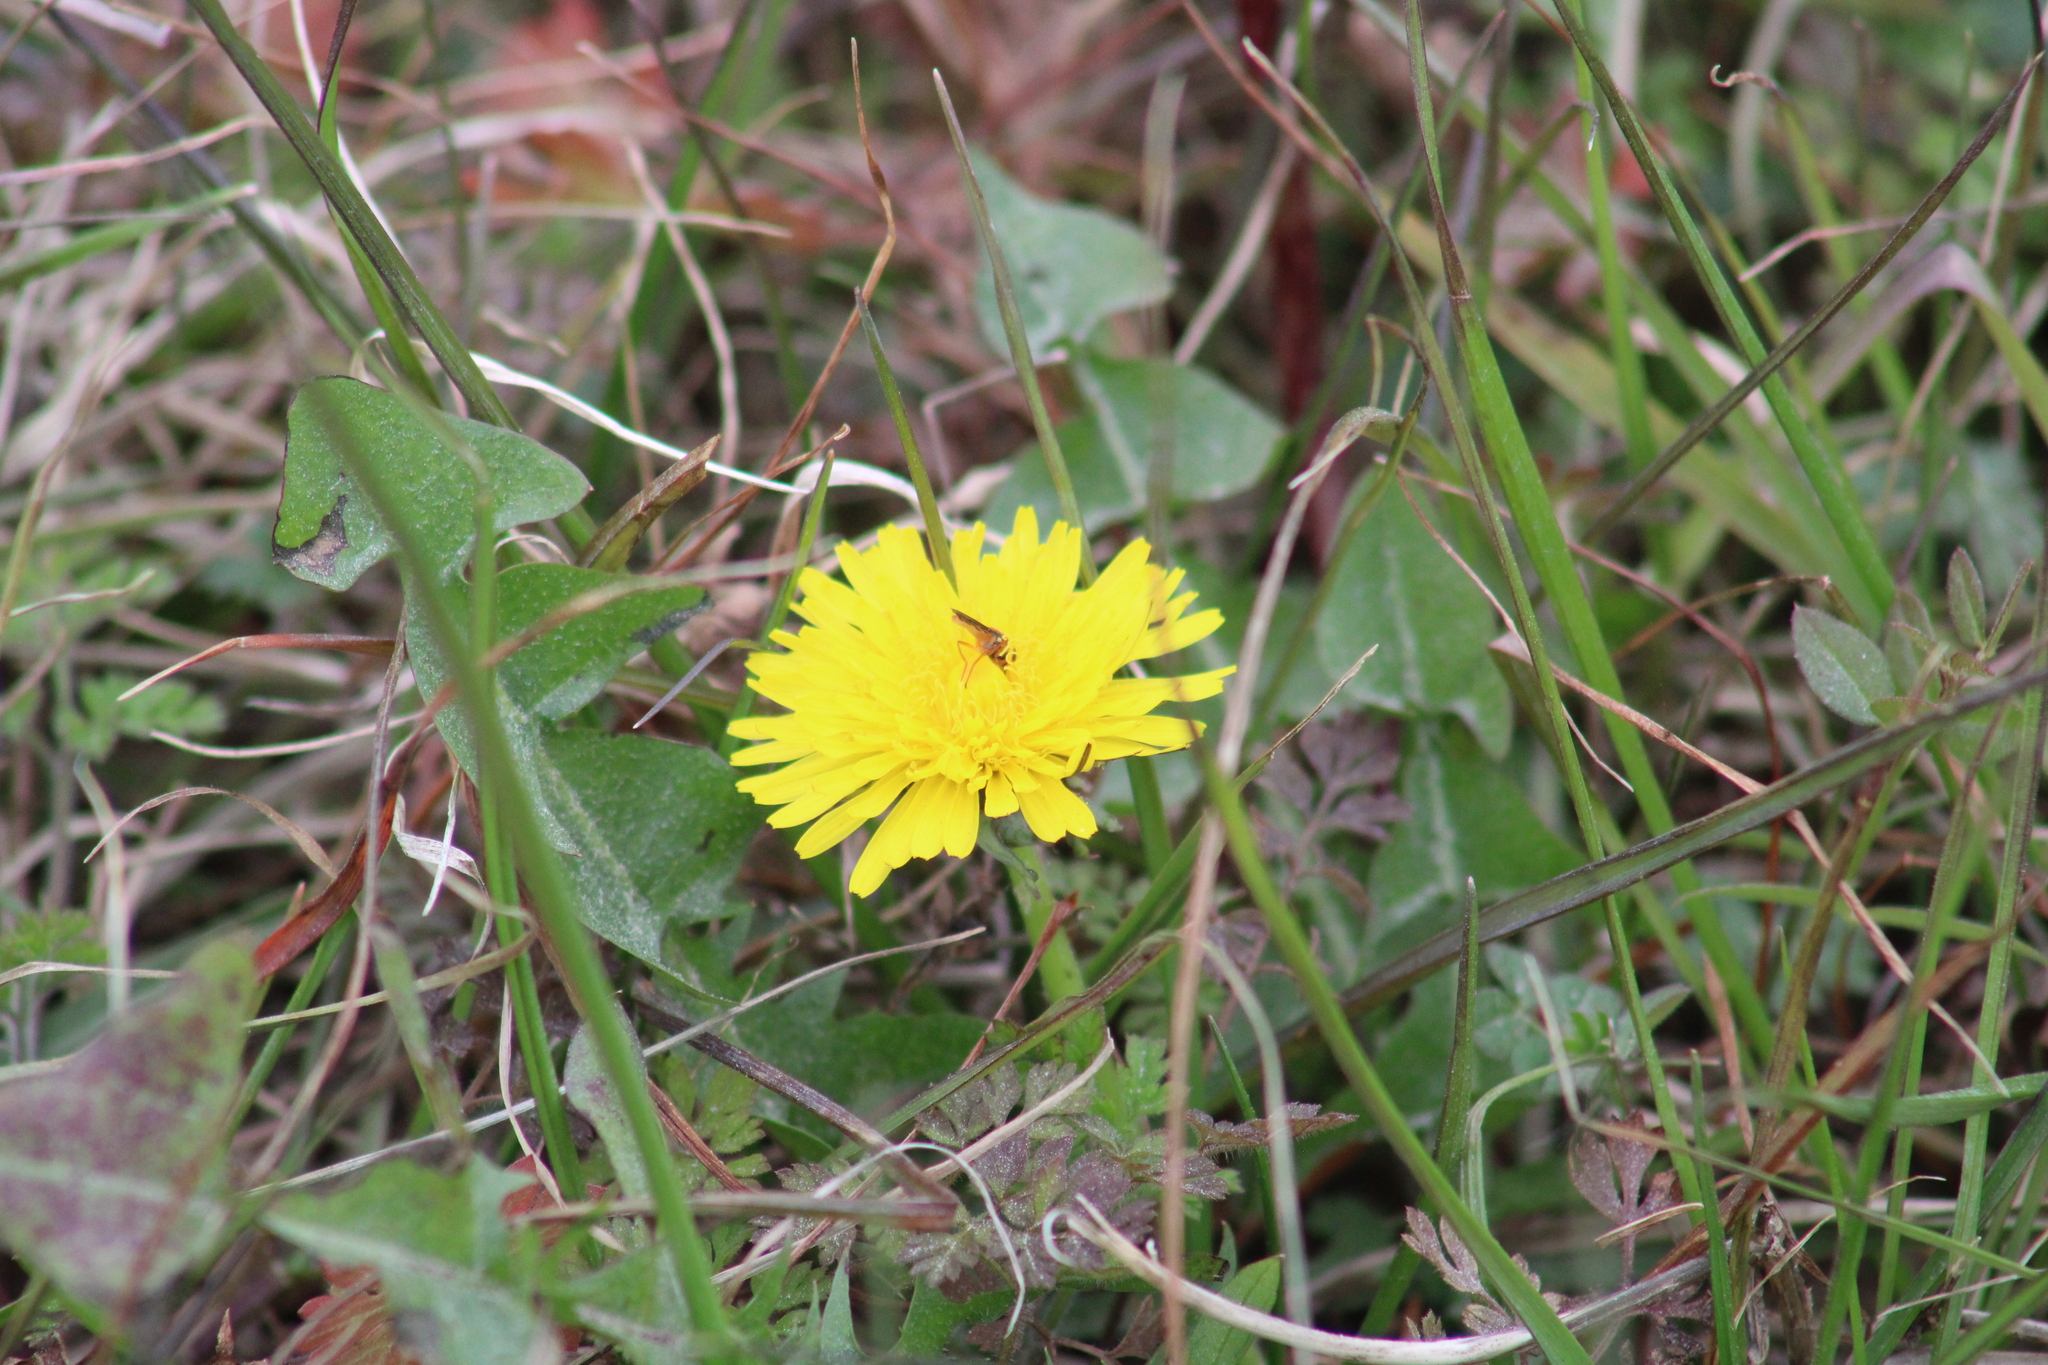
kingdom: Animalia
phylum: Arthropoda
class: Insecta
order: Diptera
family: Syrphidae
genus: Toxomerus
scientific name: Toxomerus jussiaeae
